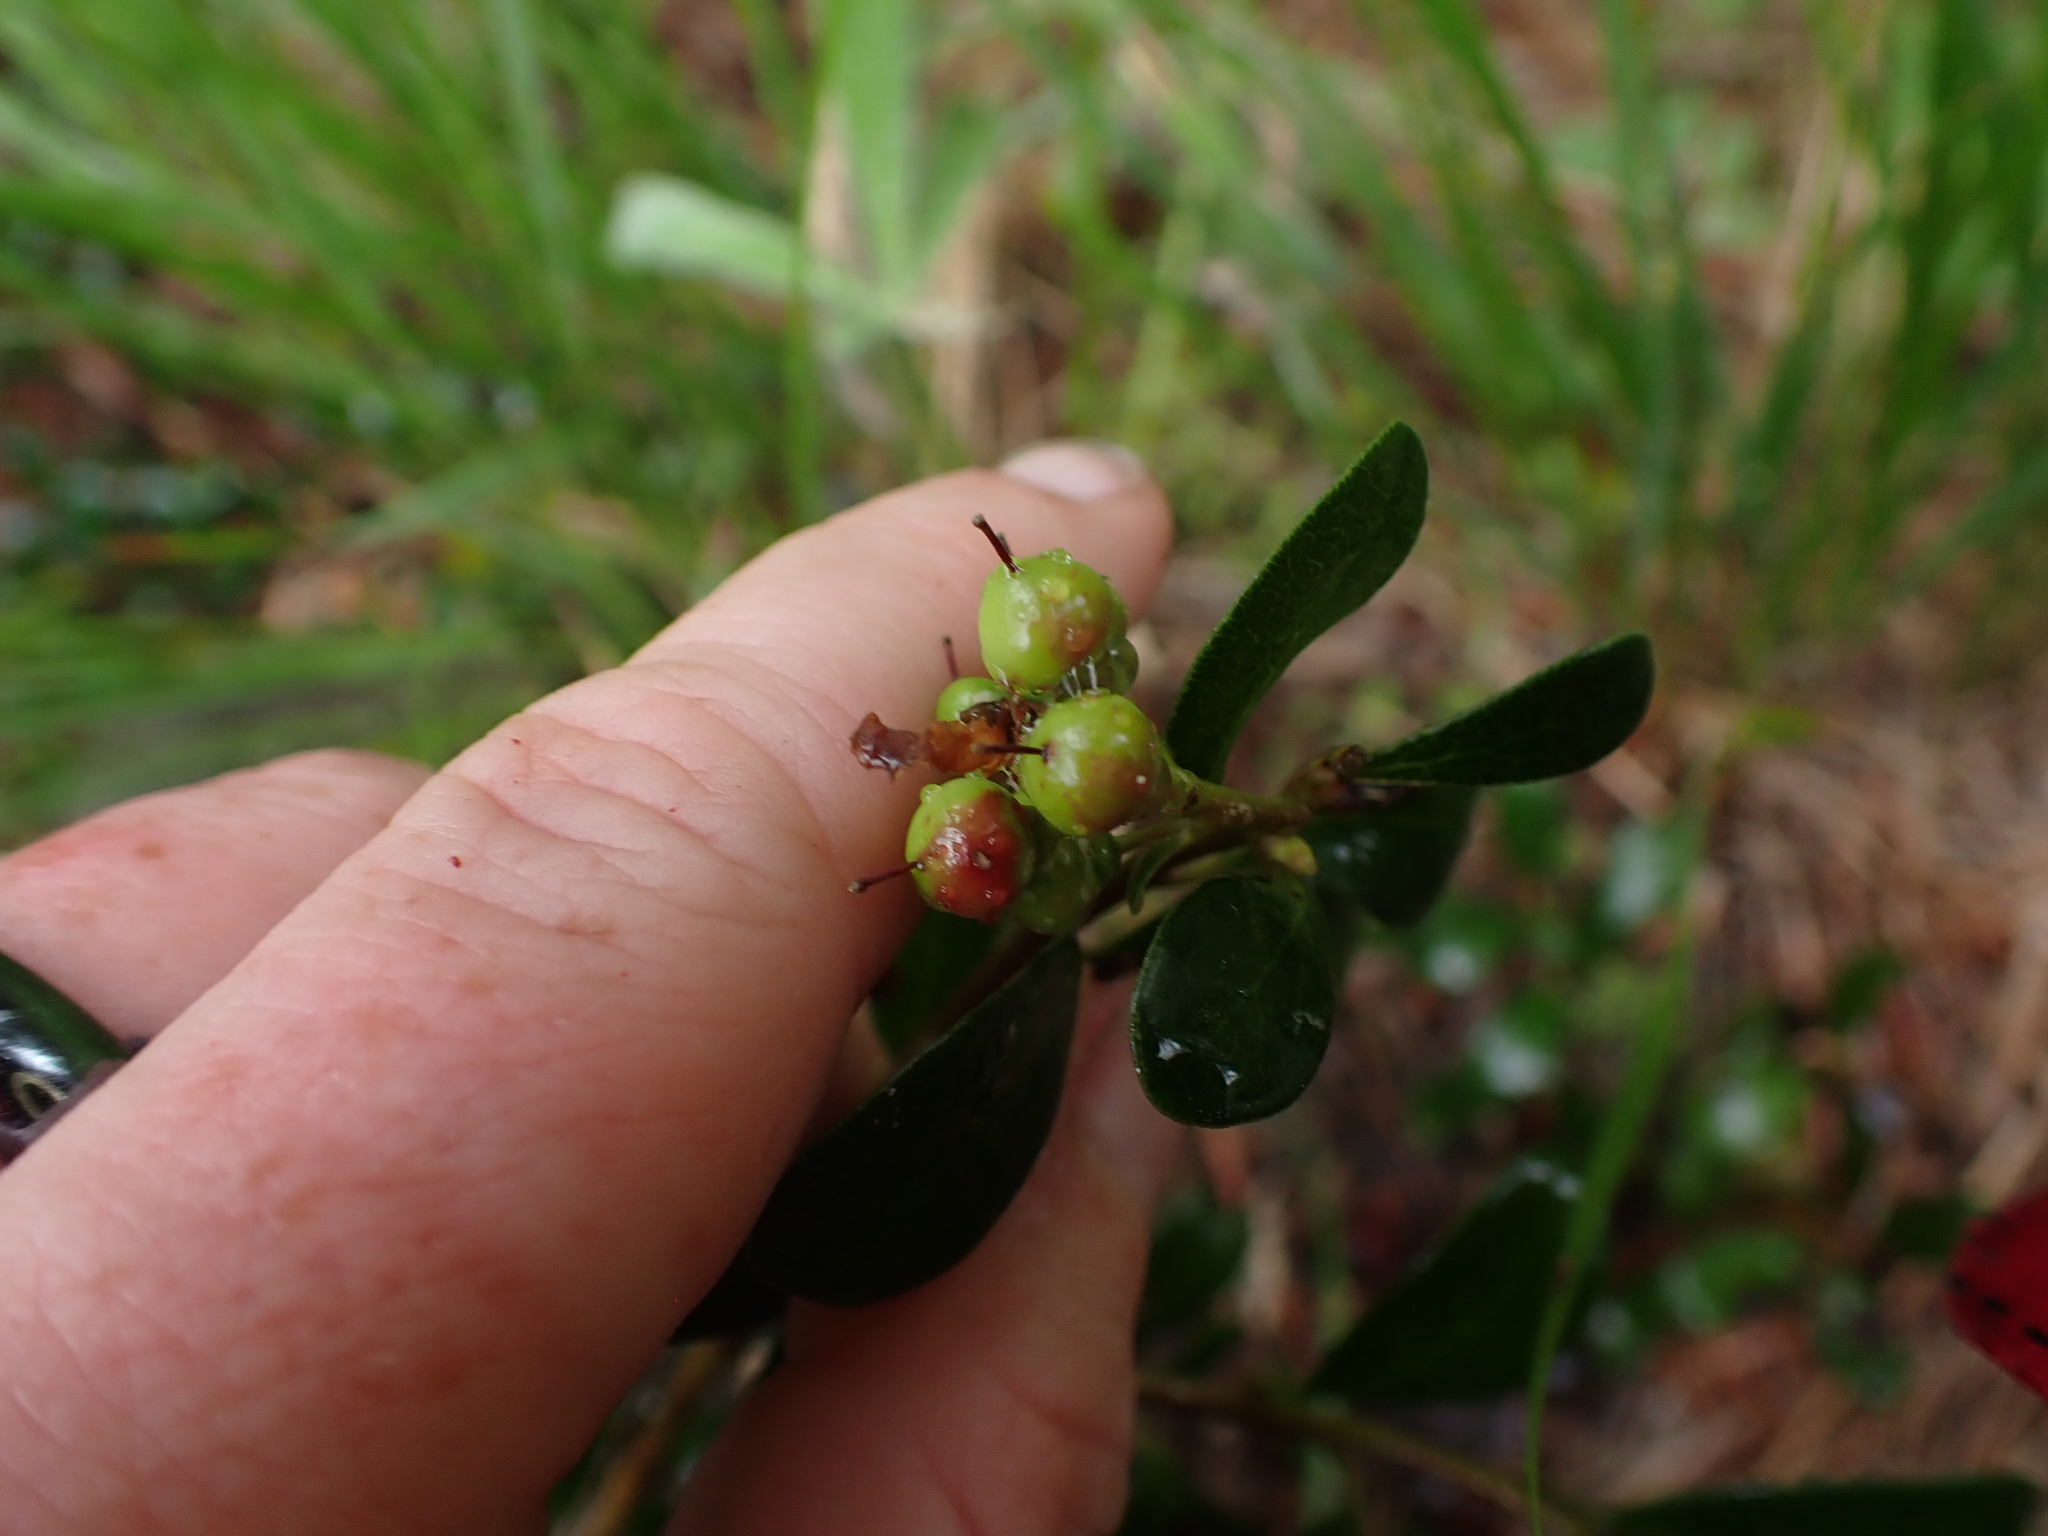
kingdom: Plantae
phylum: Tracheophyta
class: Magnoliopsida
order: Ericales
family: Ericaceae
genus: Arctostaphylos
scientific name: Arctostaphylos uva-ursi
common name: Bearberry
